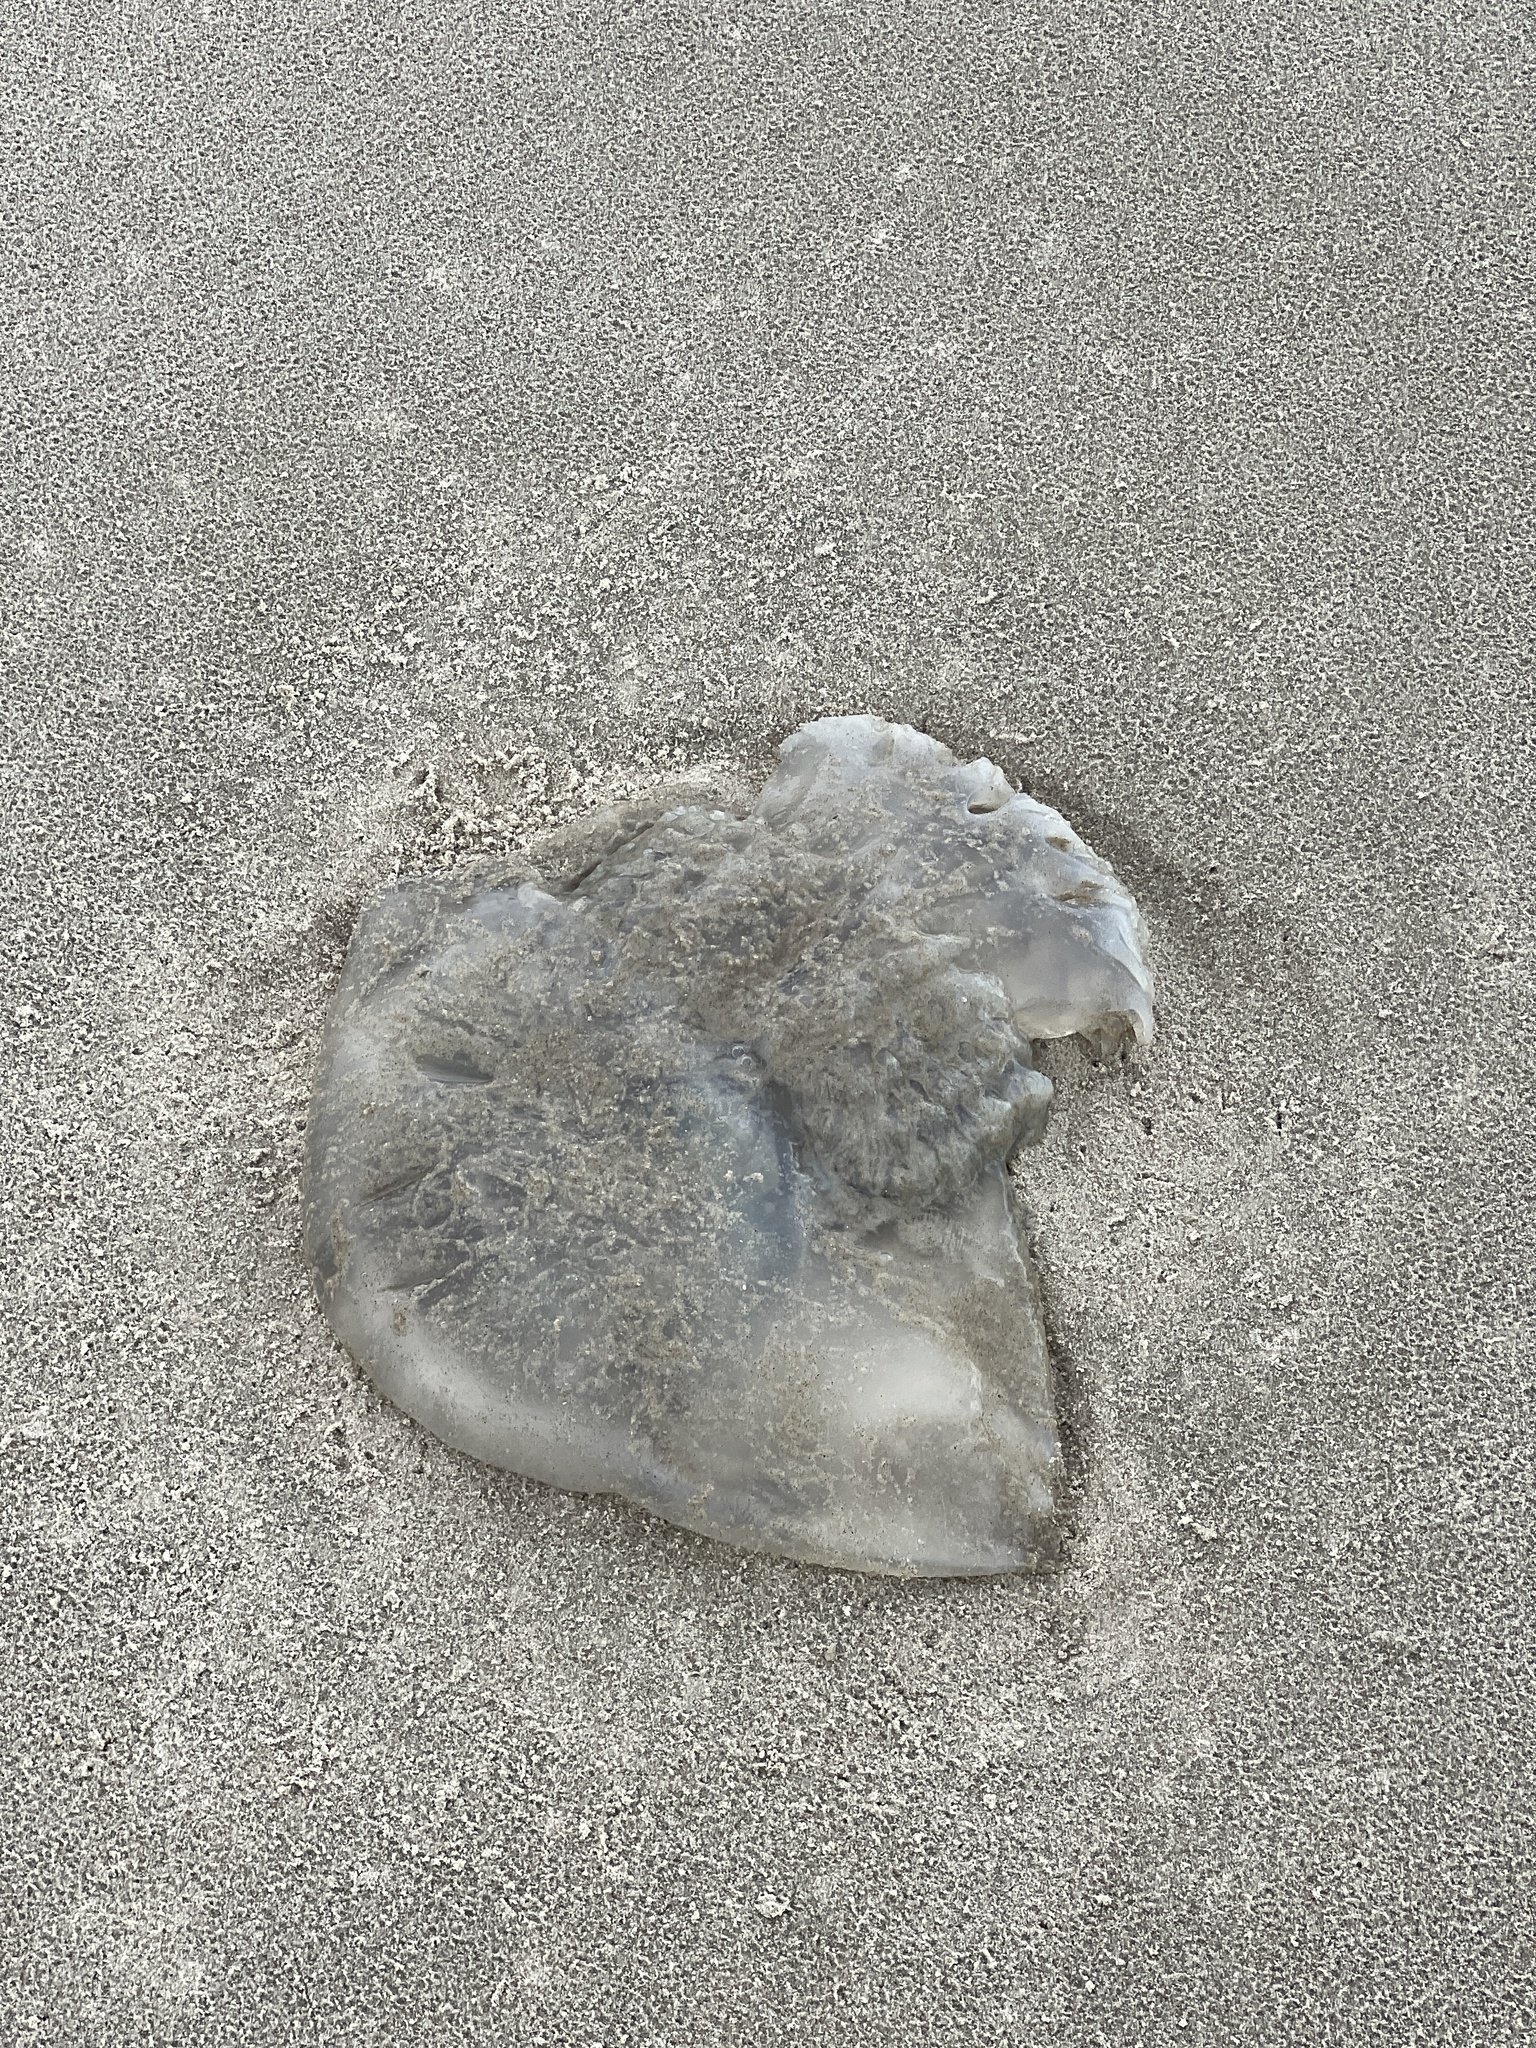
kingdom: Animalia
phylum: Cnidaria
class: Scyphozoa
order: Rhizostomeae
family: Stomolophidae
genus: Stomolophus
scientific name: Stomolophus meleagris
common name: Cabbagehead
